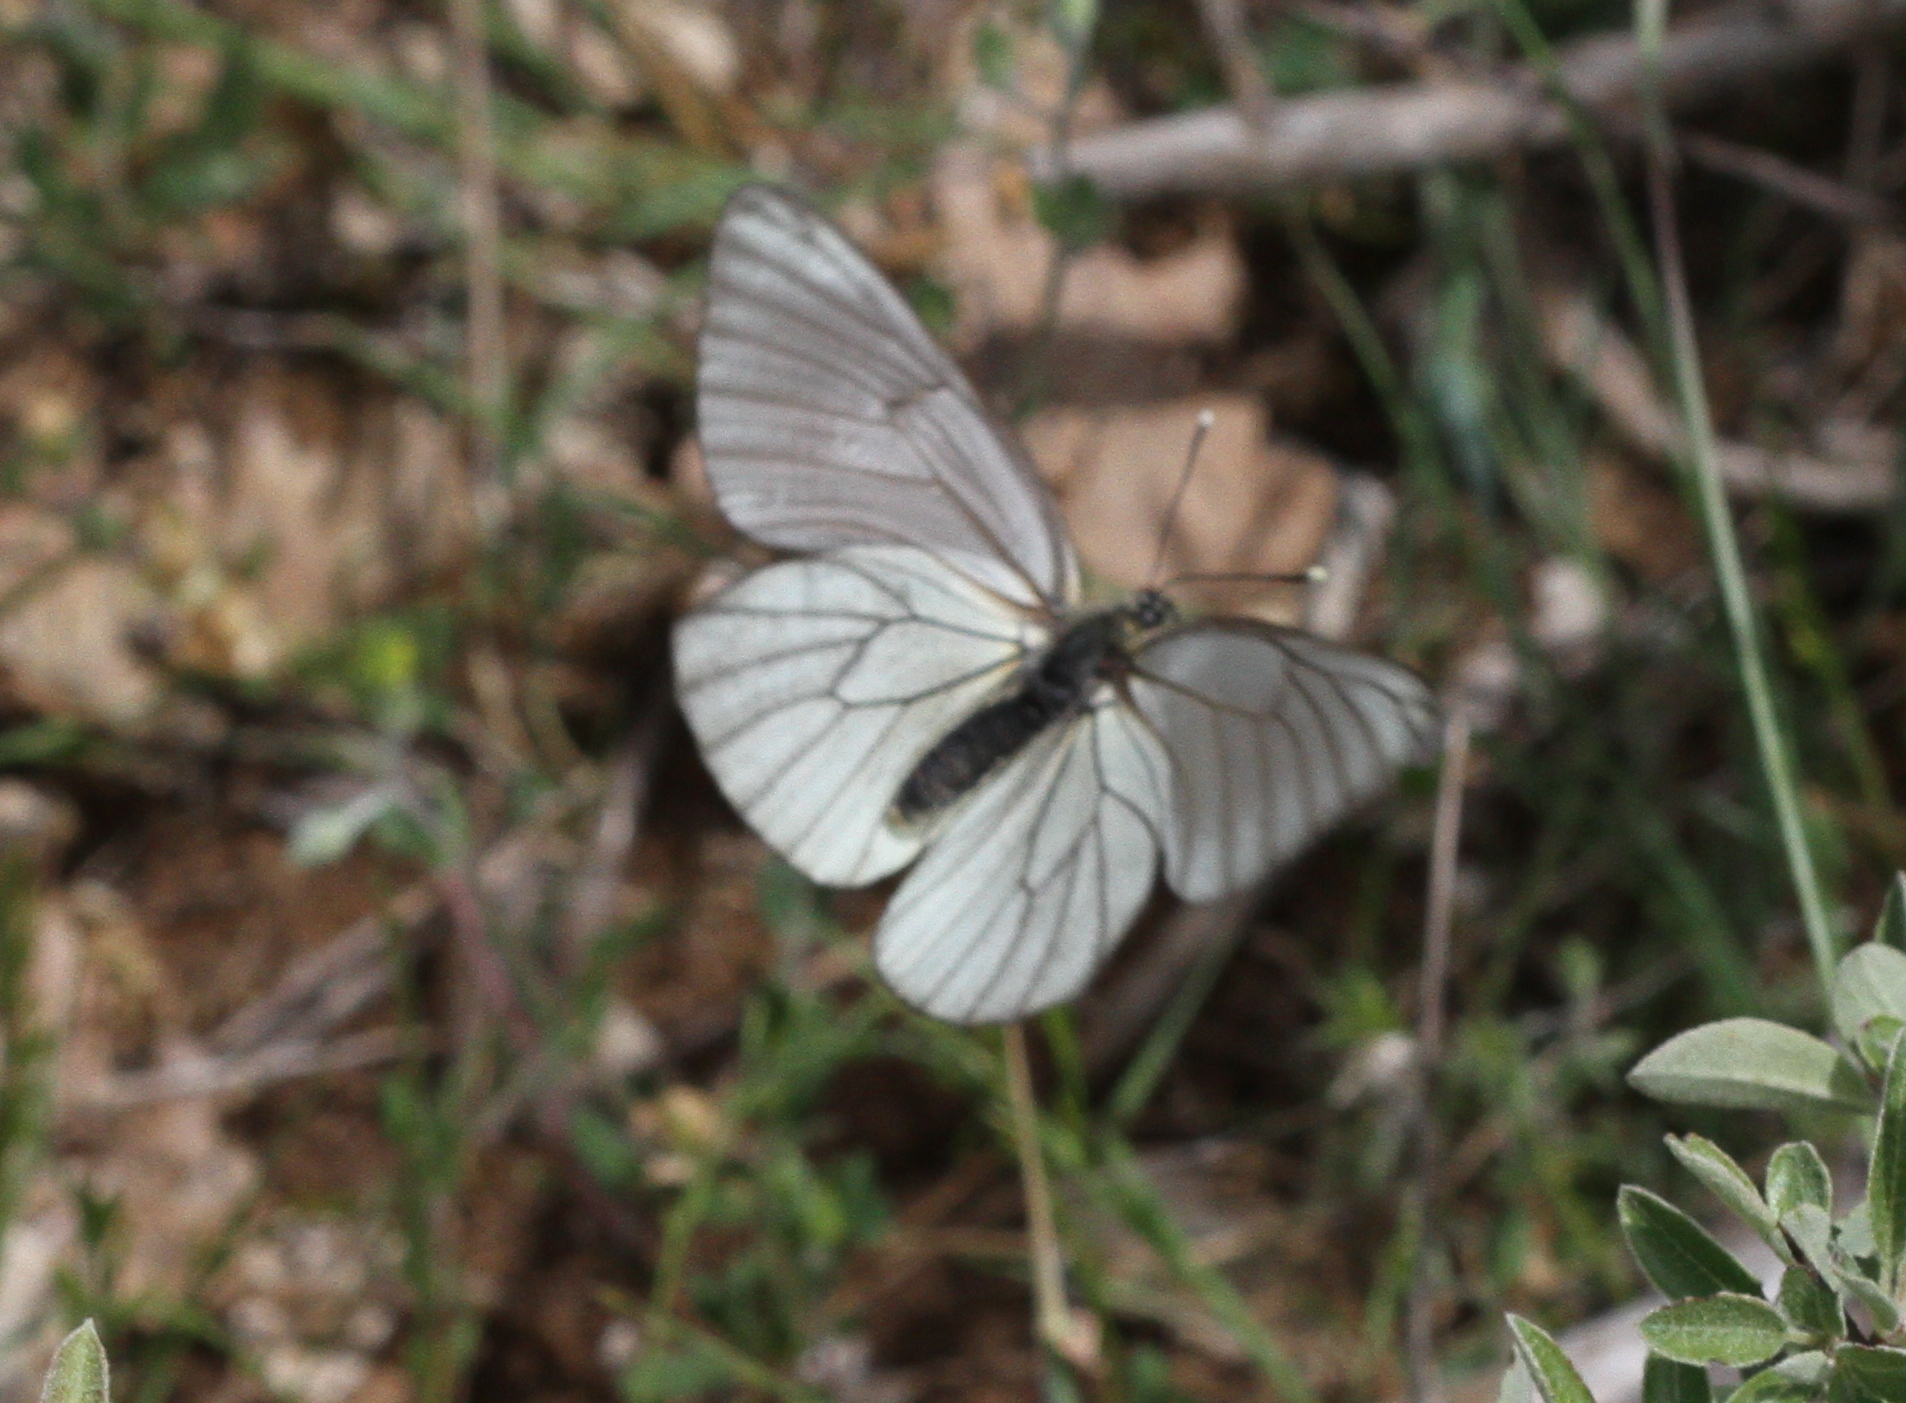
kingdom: Animalia
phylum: Arthropoda
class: Insecta
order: Lepidoptera
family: Pieridae
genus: Aporia
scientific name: Aporia crataegi
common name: Black-veined white
